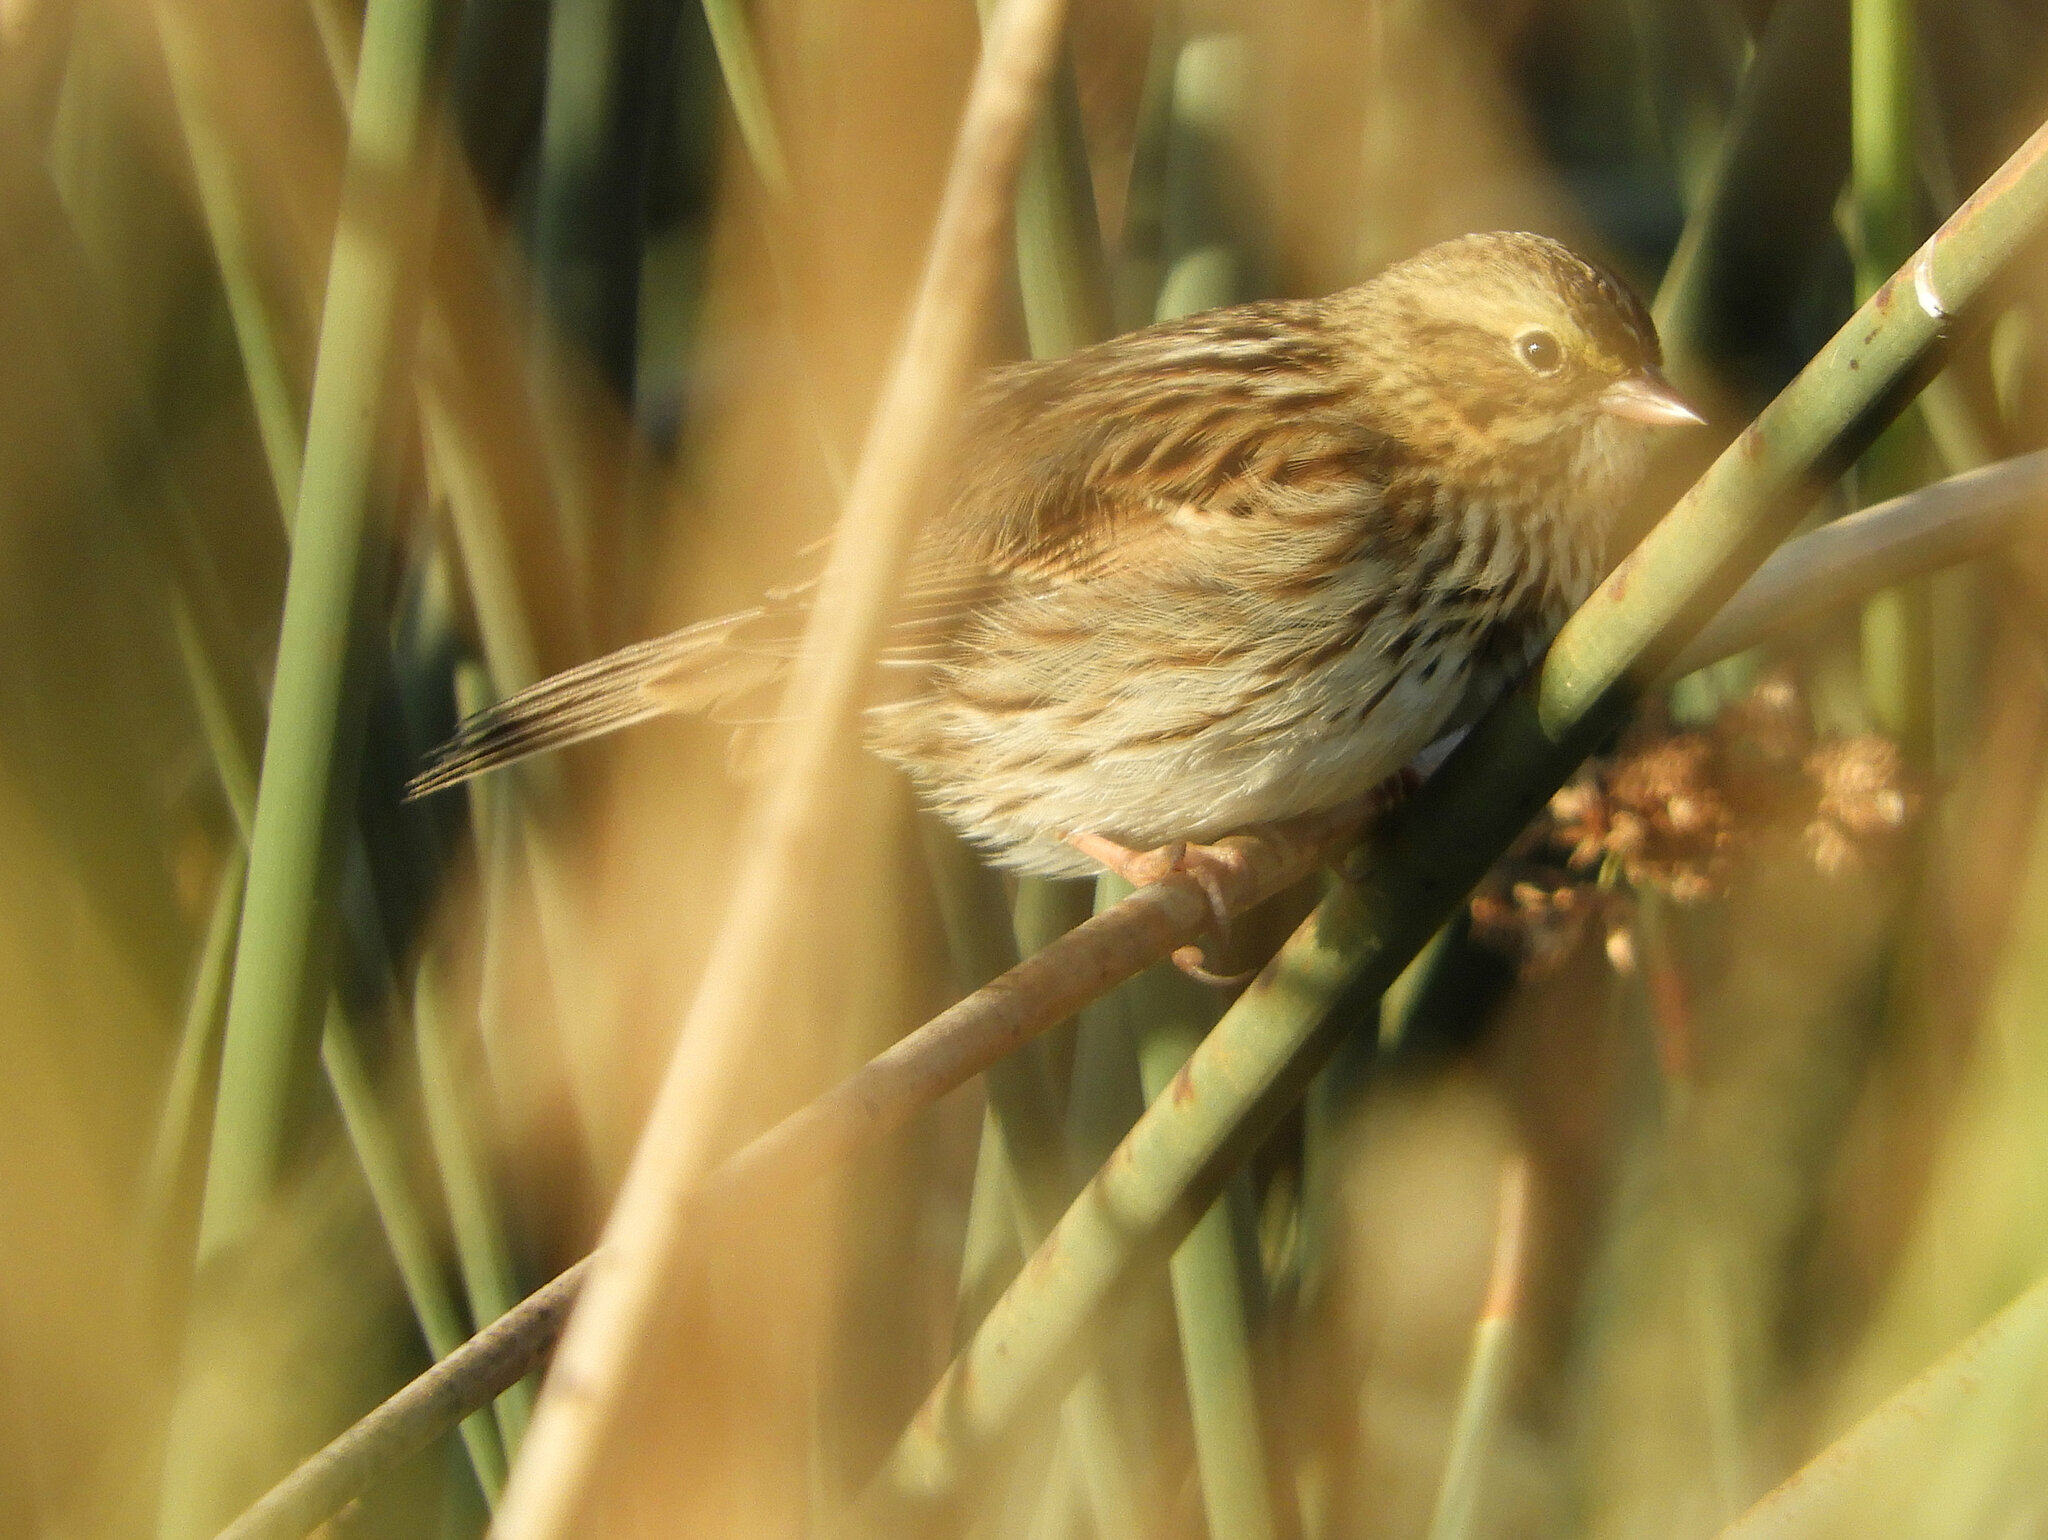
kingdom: Animalia
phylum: Chordata
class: Aves
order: Passeriformes
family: Passerellidae
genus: Passerculus
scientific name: Passerculus sandwichensis
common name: Savannah sparrow
